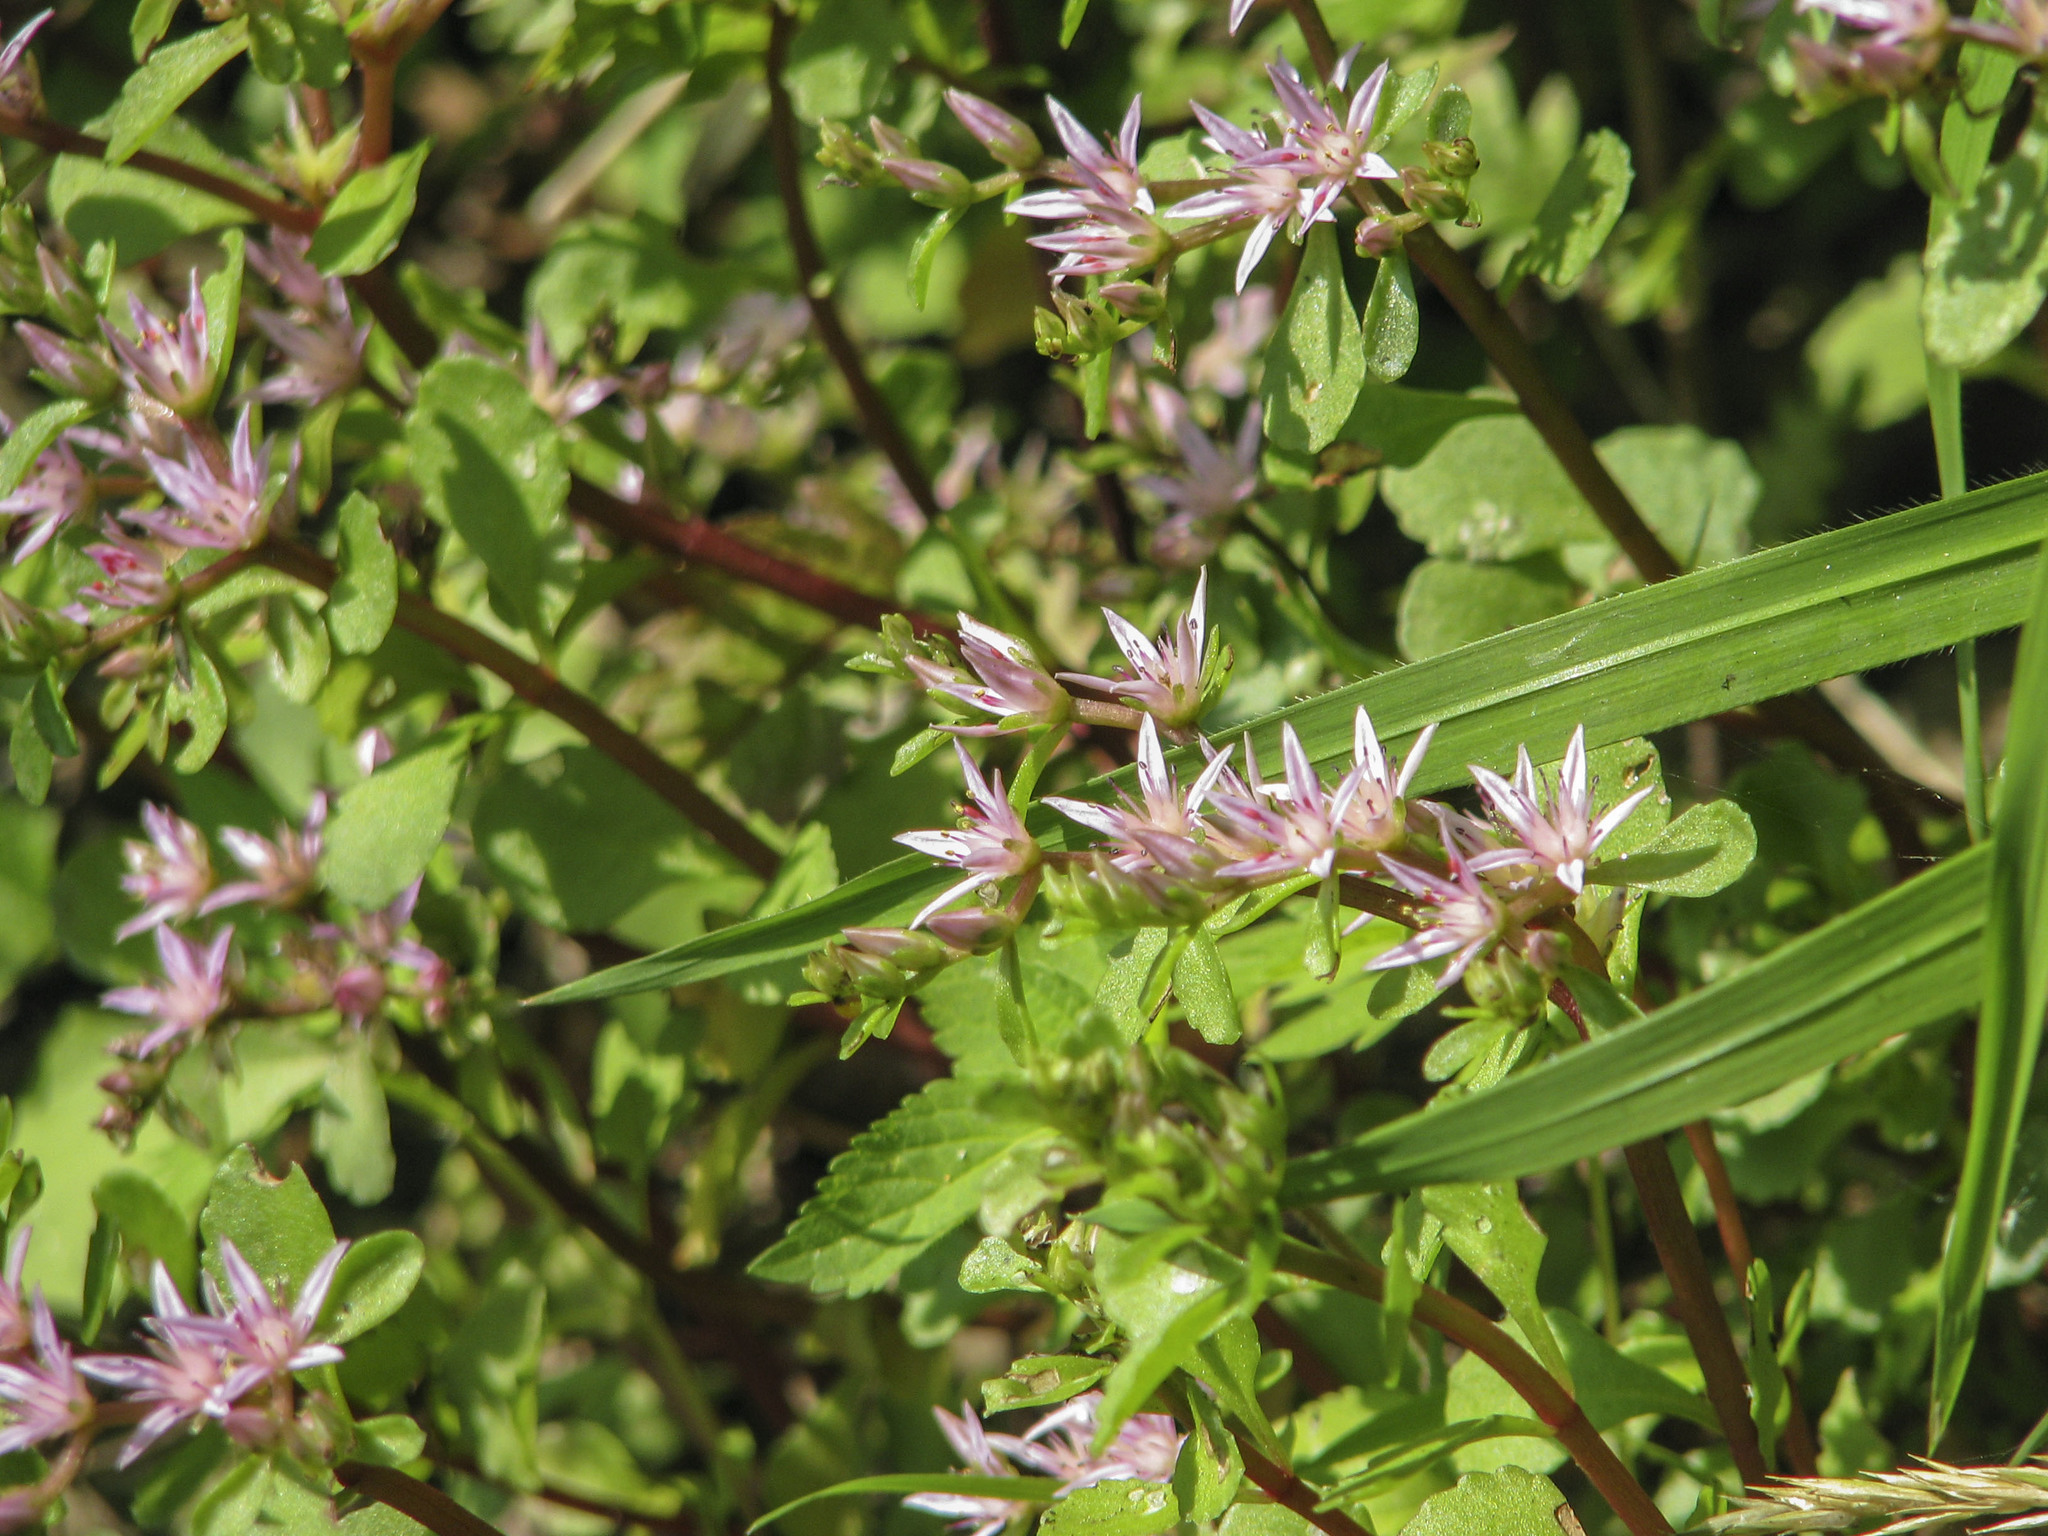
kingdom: Plantae
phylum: Tracheophyta
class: Magnoliopsida
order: Saxifragales
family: Crassulaceae
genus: Phedimus
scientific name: Phedimus stolonifer
